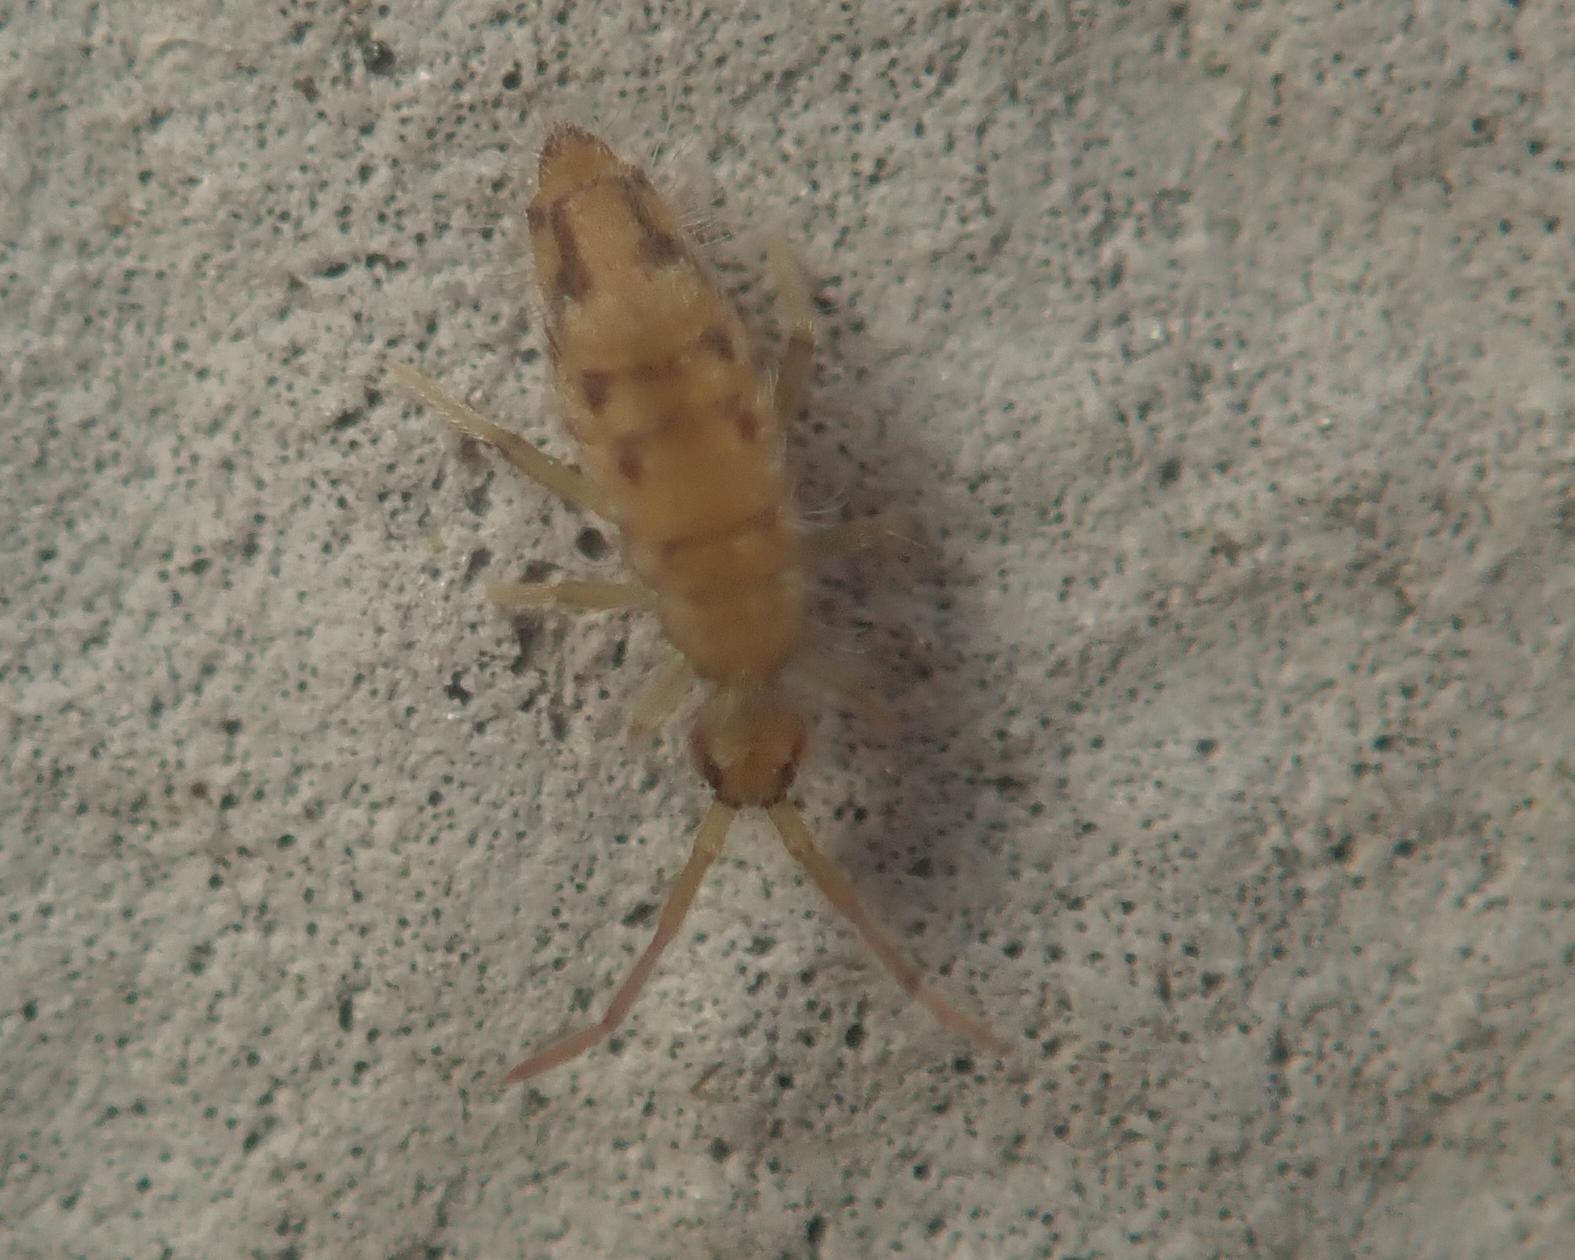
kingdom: Animalia
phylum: Arthropoda
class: Collembola
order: Entomobryomorpha
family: Entomobryidae
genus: Entomobrya
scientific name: Entomobrya nivalis
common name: Cosmopolitan springtail
